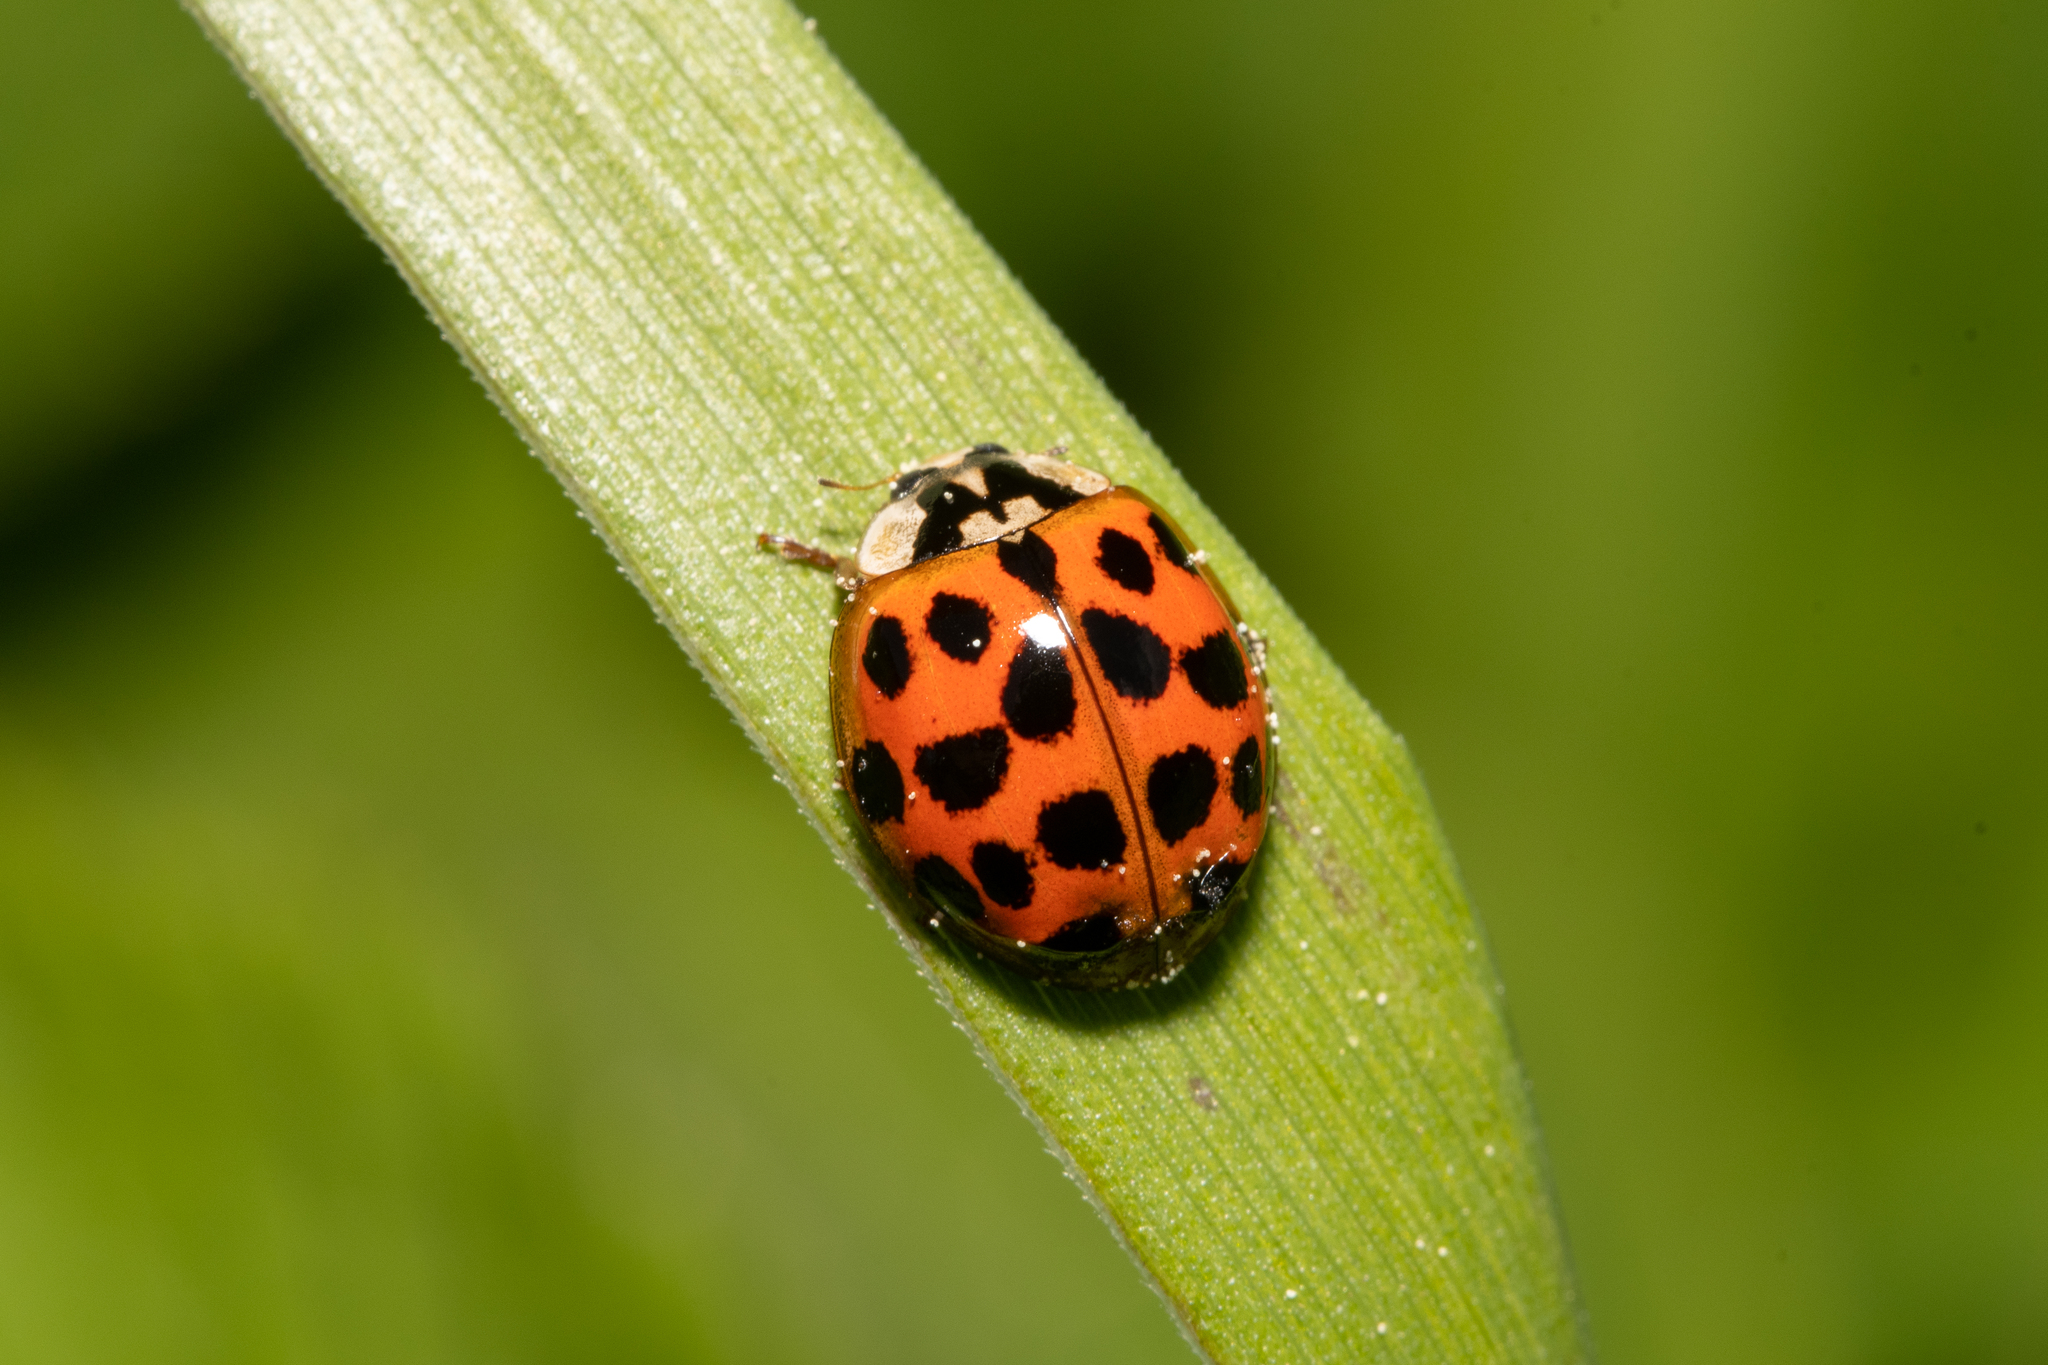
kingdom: Animalia
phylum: Arthropoda
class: Insecta
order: Coleoptera
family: Coccinellidae
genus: Harmonia
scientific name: Harmonia axyridis
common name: Harlequin ladybird
